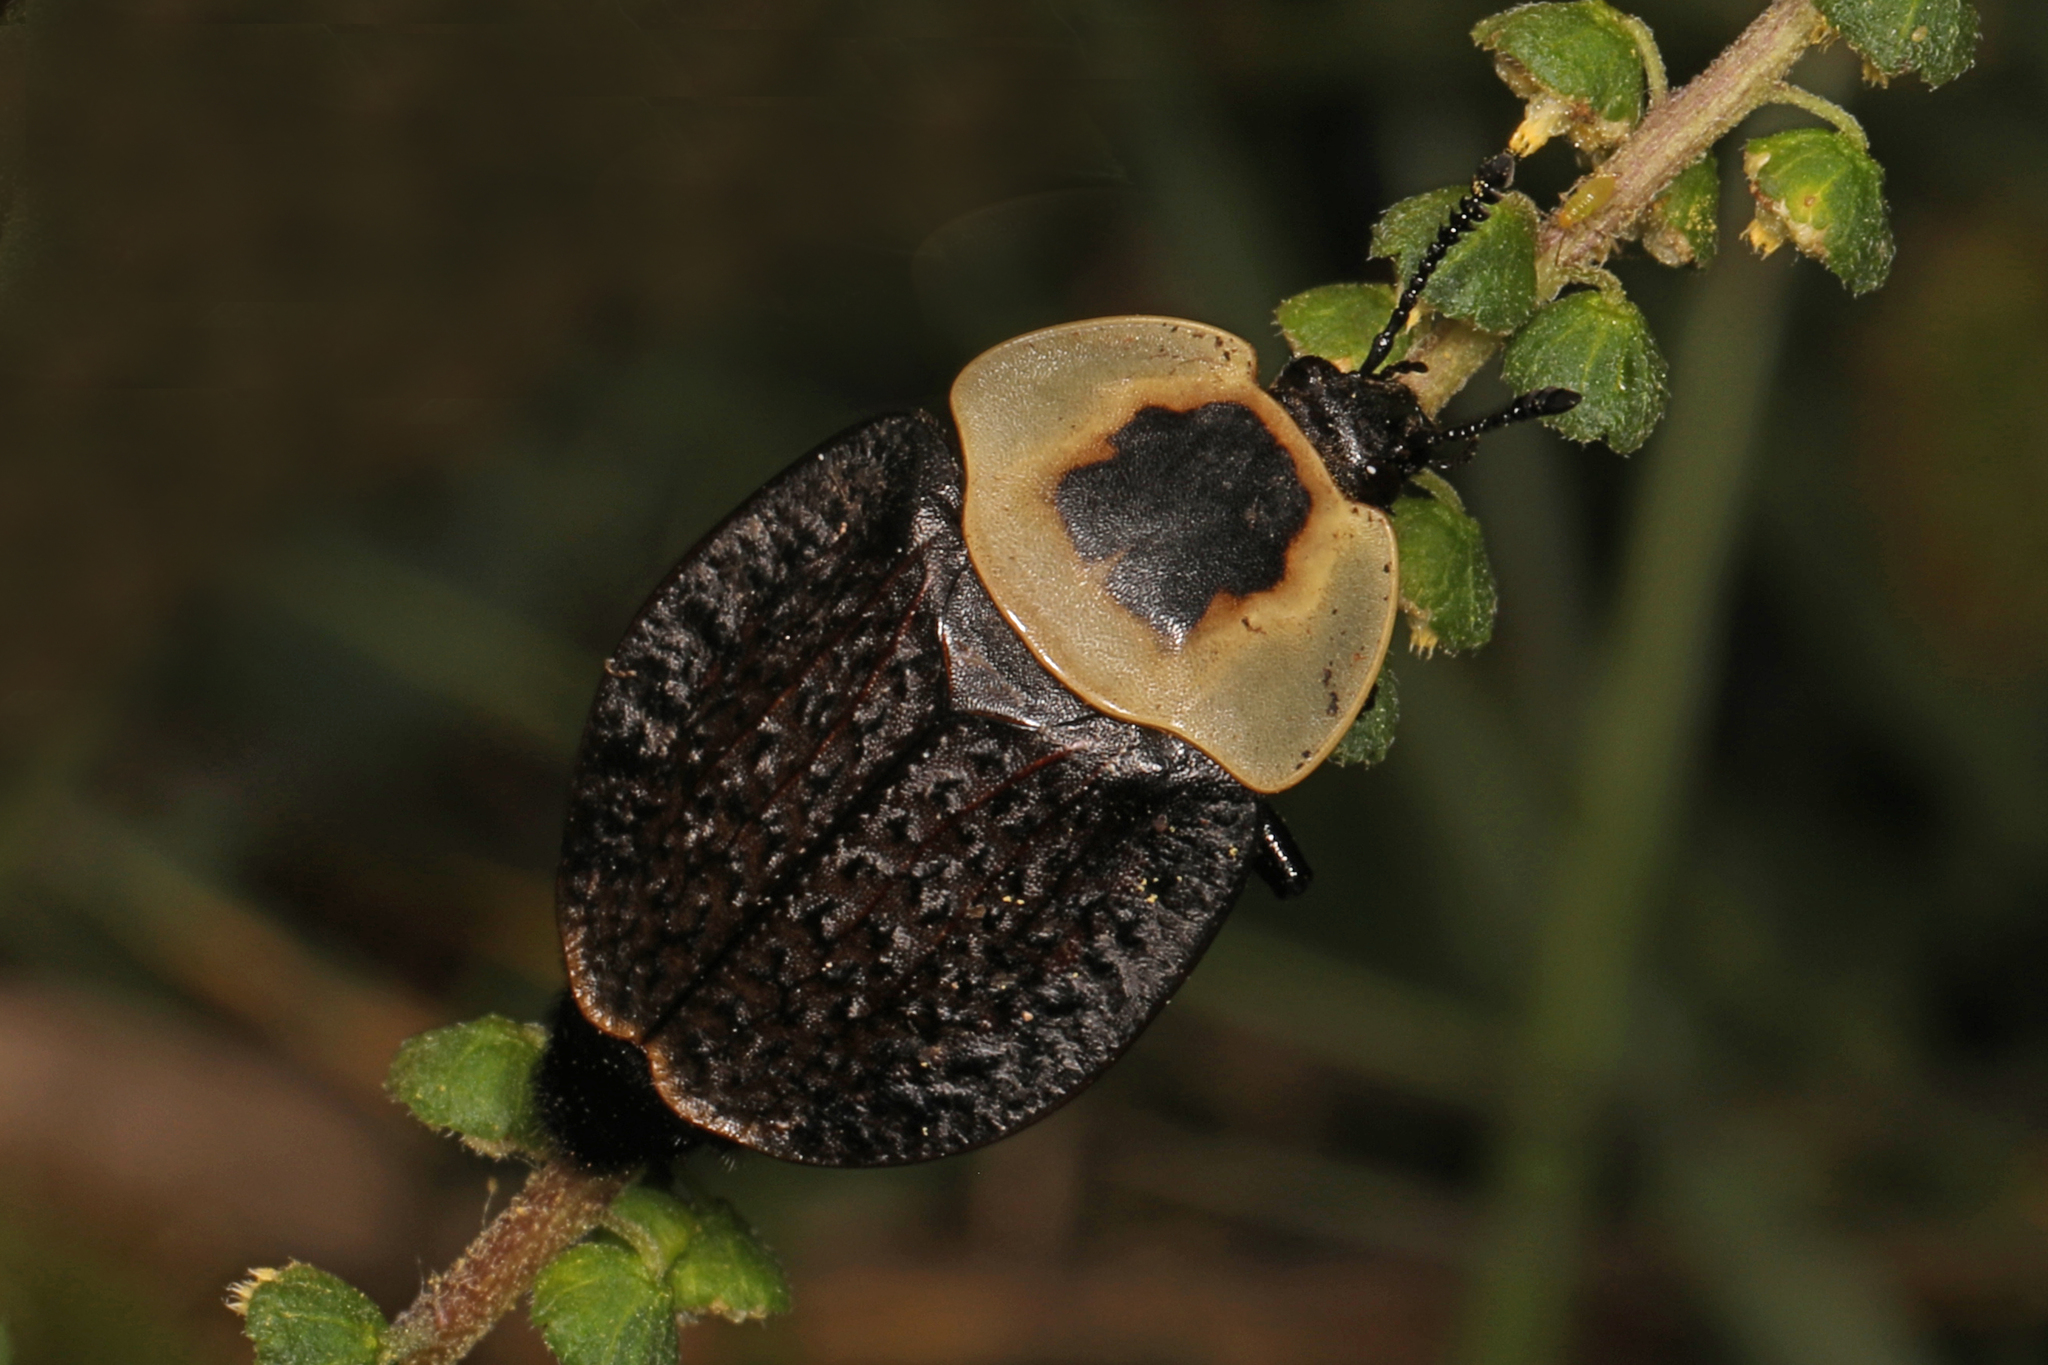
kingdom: Animalia
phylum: Arthropoda
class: Insecta
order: Coleoptera
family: Staphylinidae
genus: Necrophila
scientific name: Necrophila americana
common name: American carrion beetle
